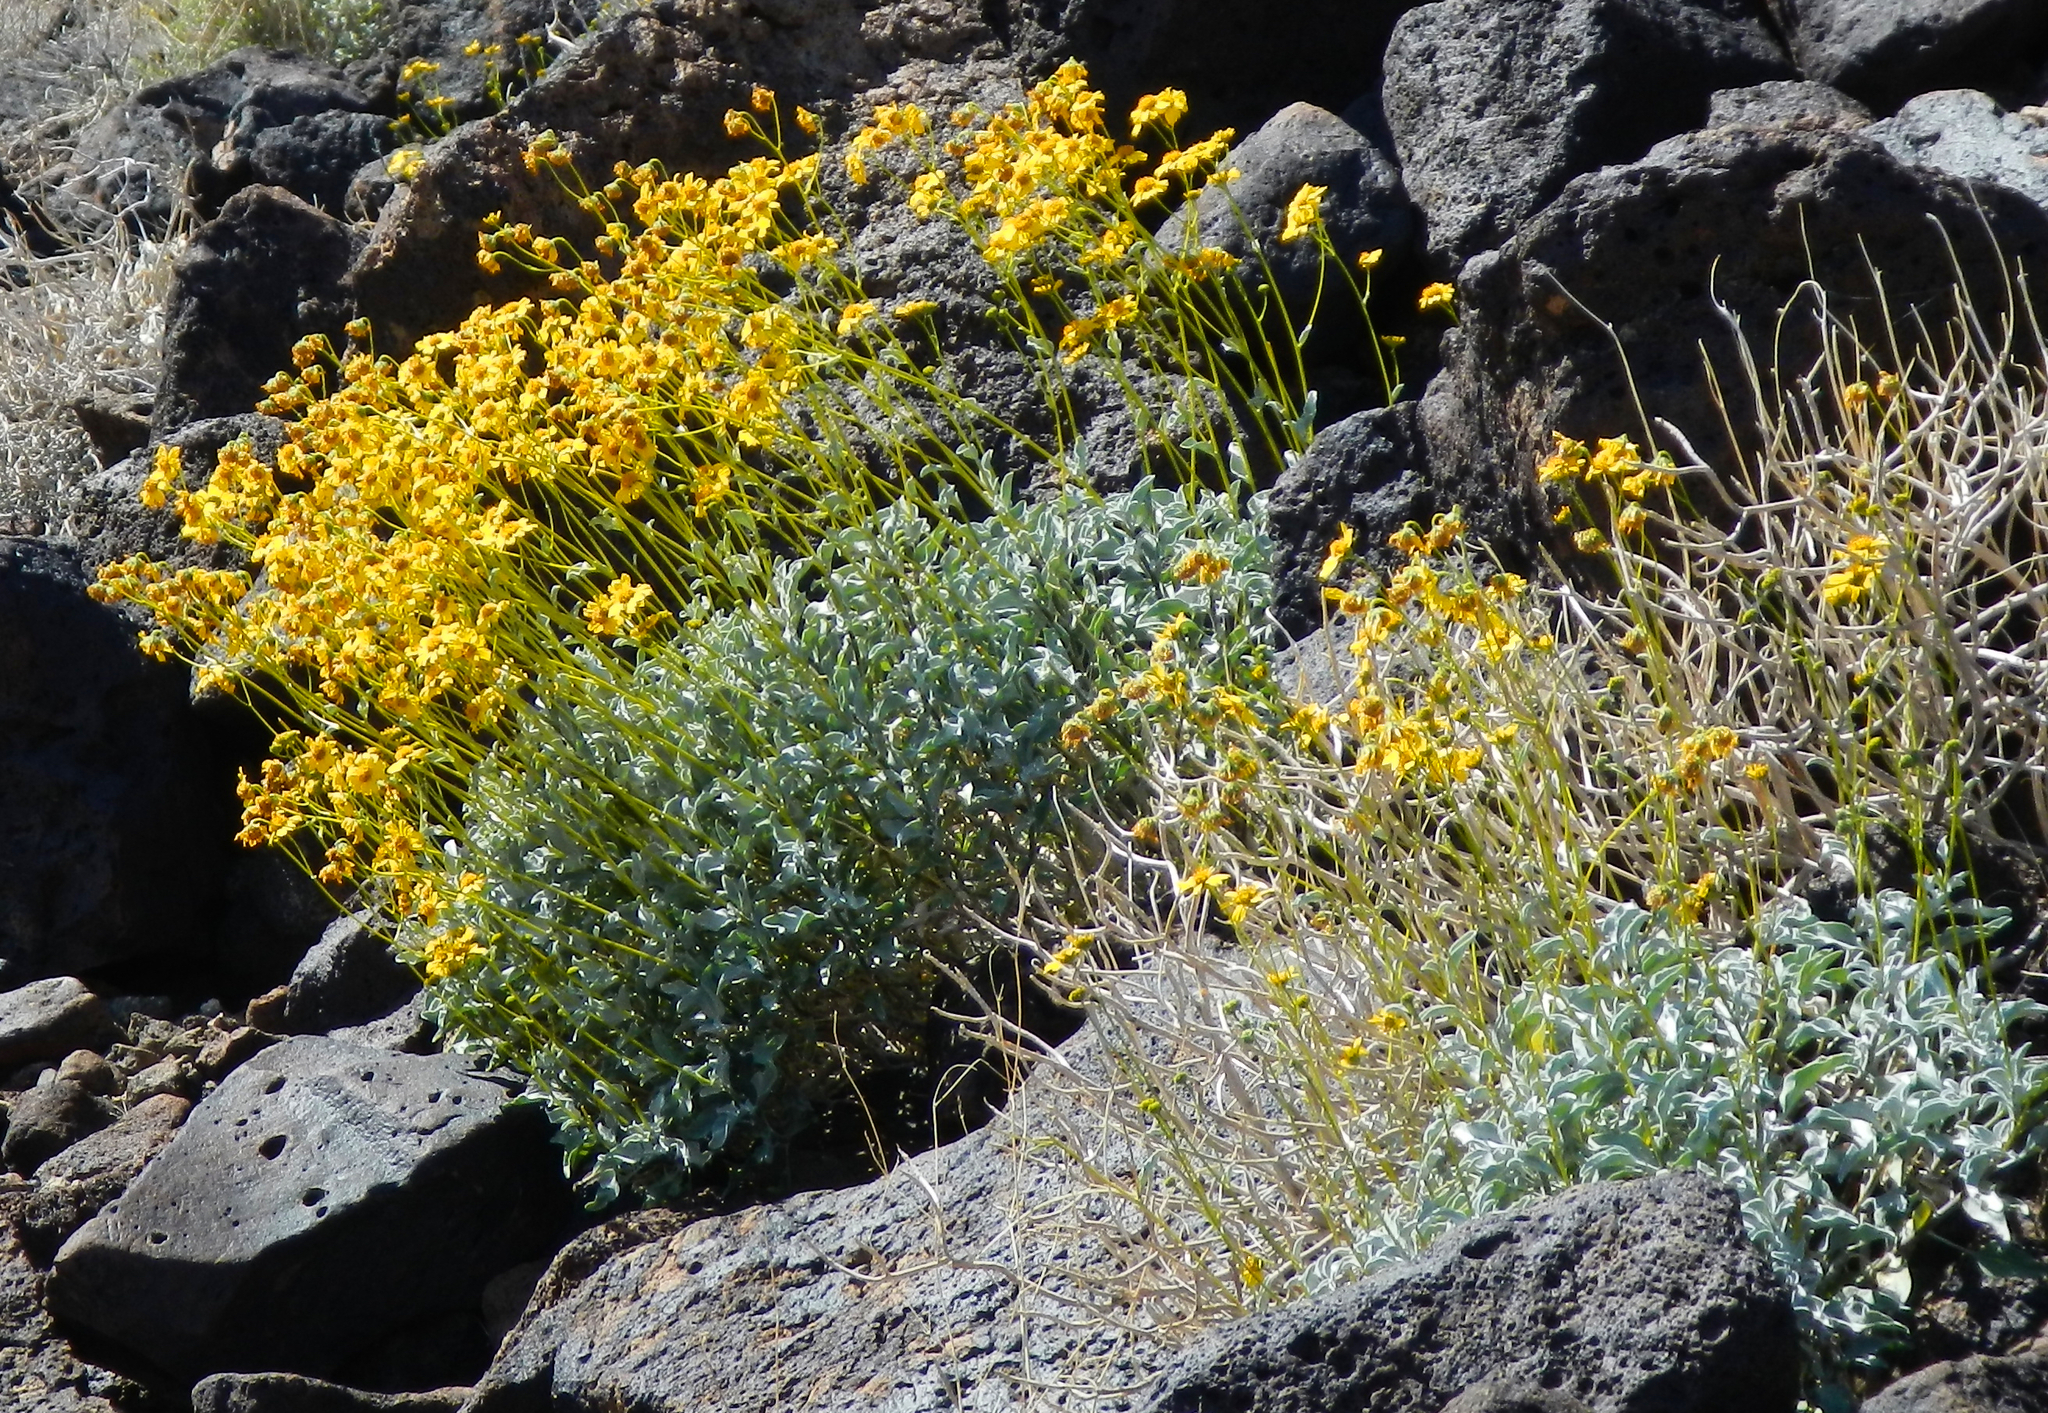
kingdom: Plantae
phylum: Tracheophyta
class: Magnoliopsida
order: Asterales
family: Asteraceae
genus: Encelia
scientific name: Encelia farinosa
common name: Brittlebush
